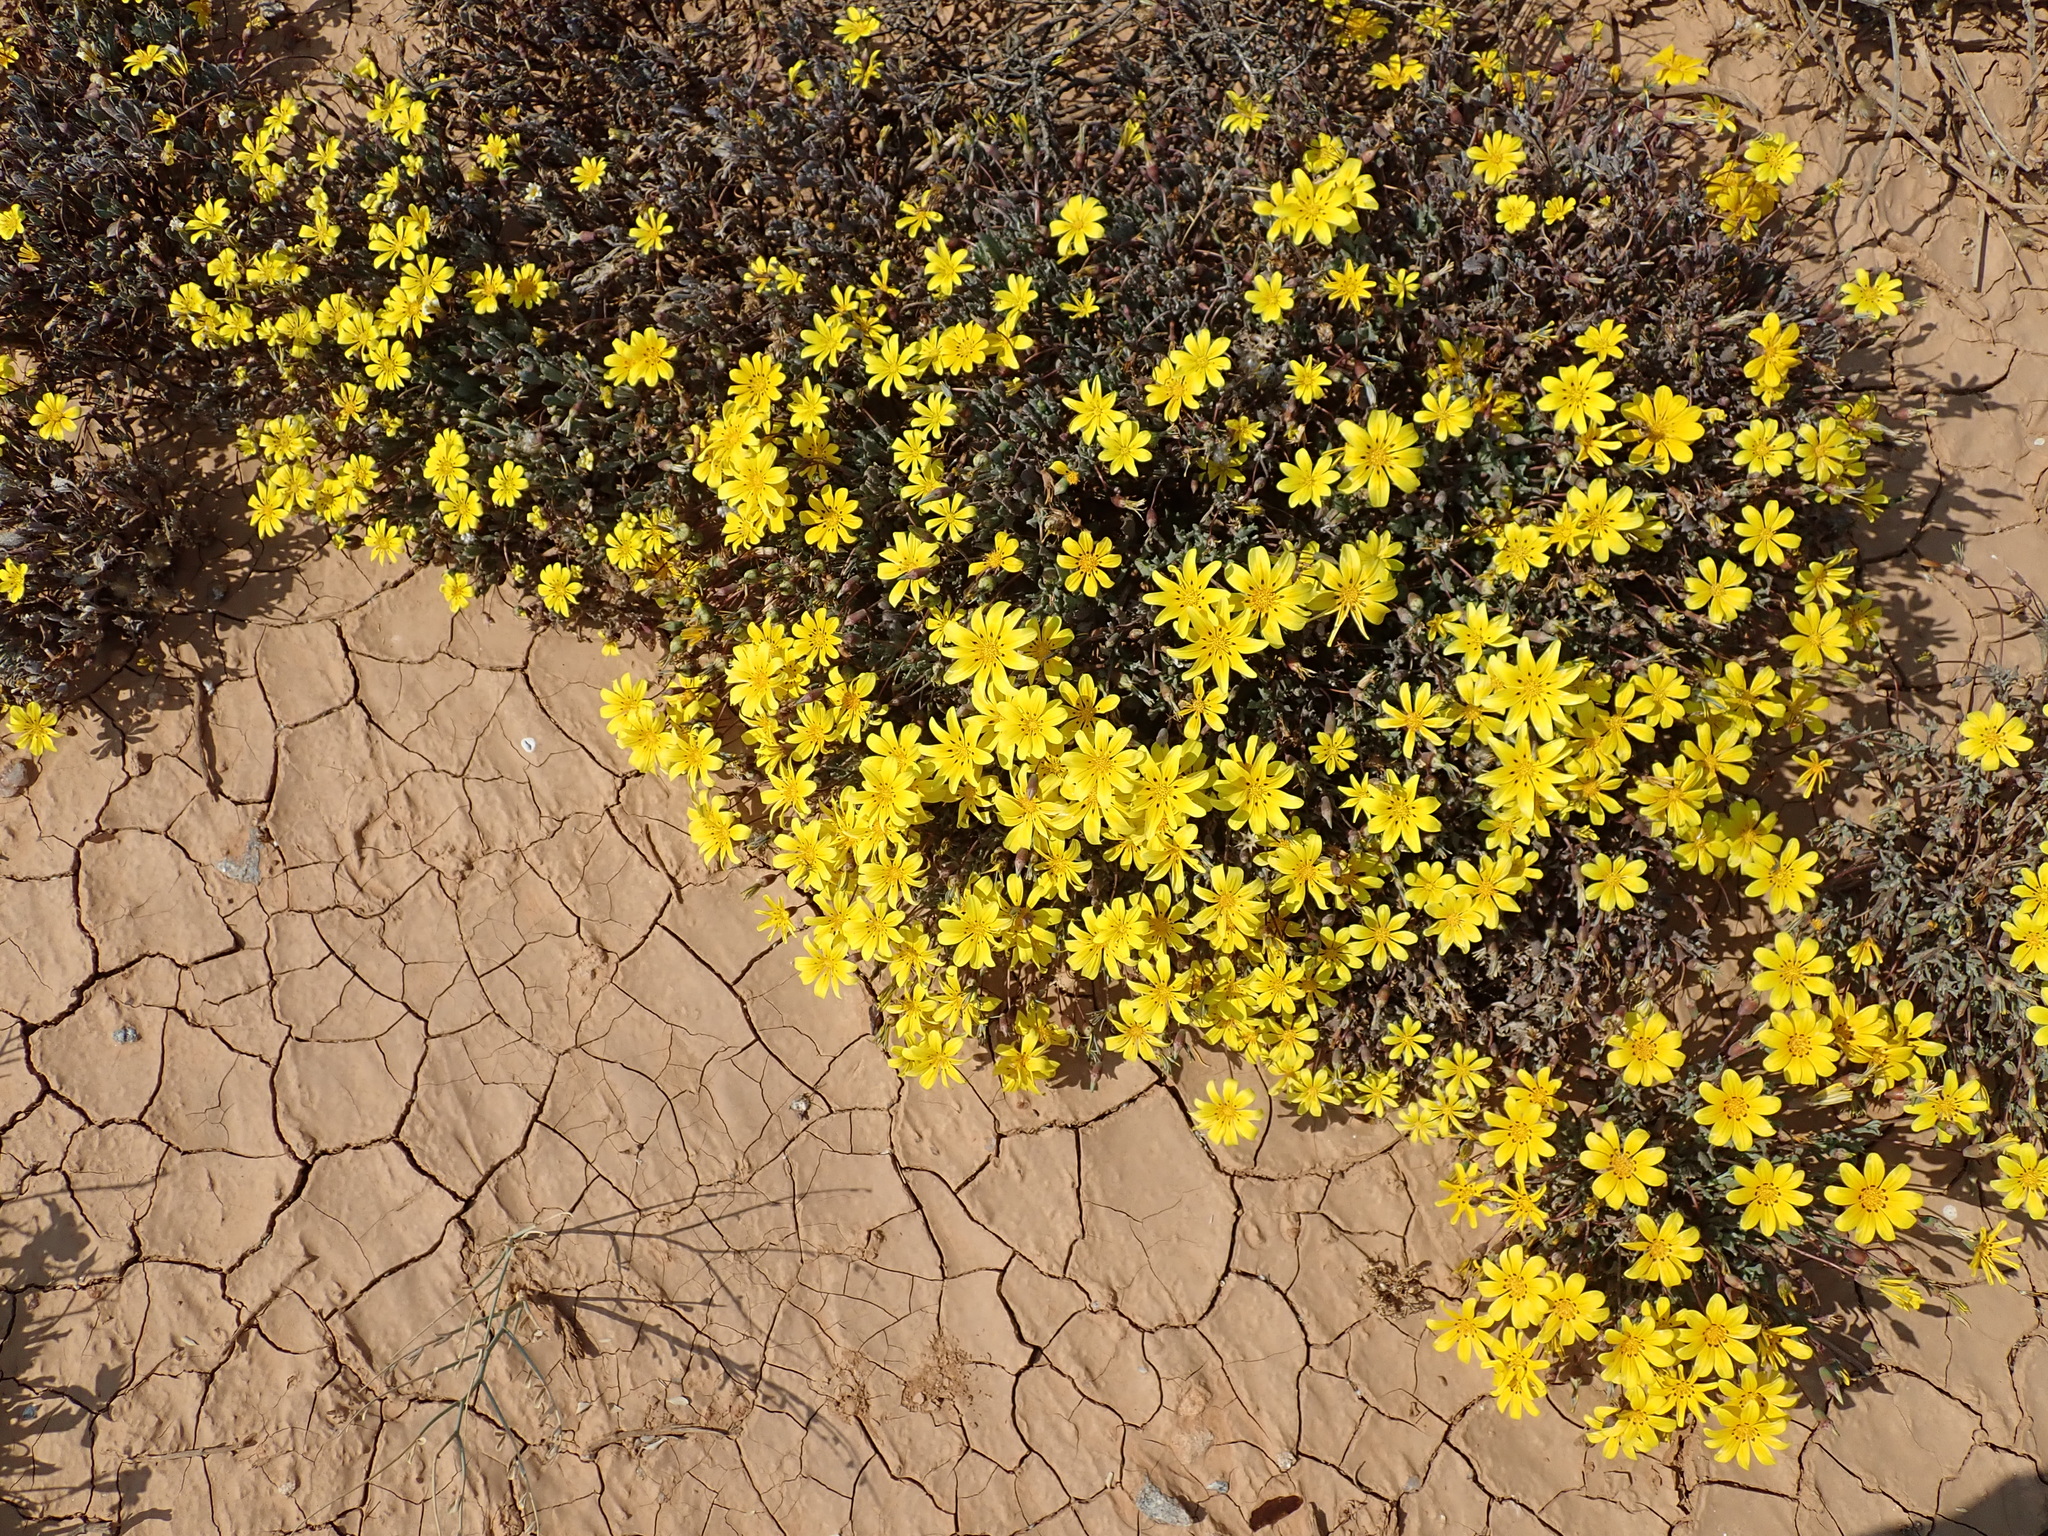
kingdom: Plantae
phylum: Tracheophyta
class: Magnoliopsida
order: Asterales
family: Asteraceae
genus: Gazania
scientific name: Gazania lichtensteinii
